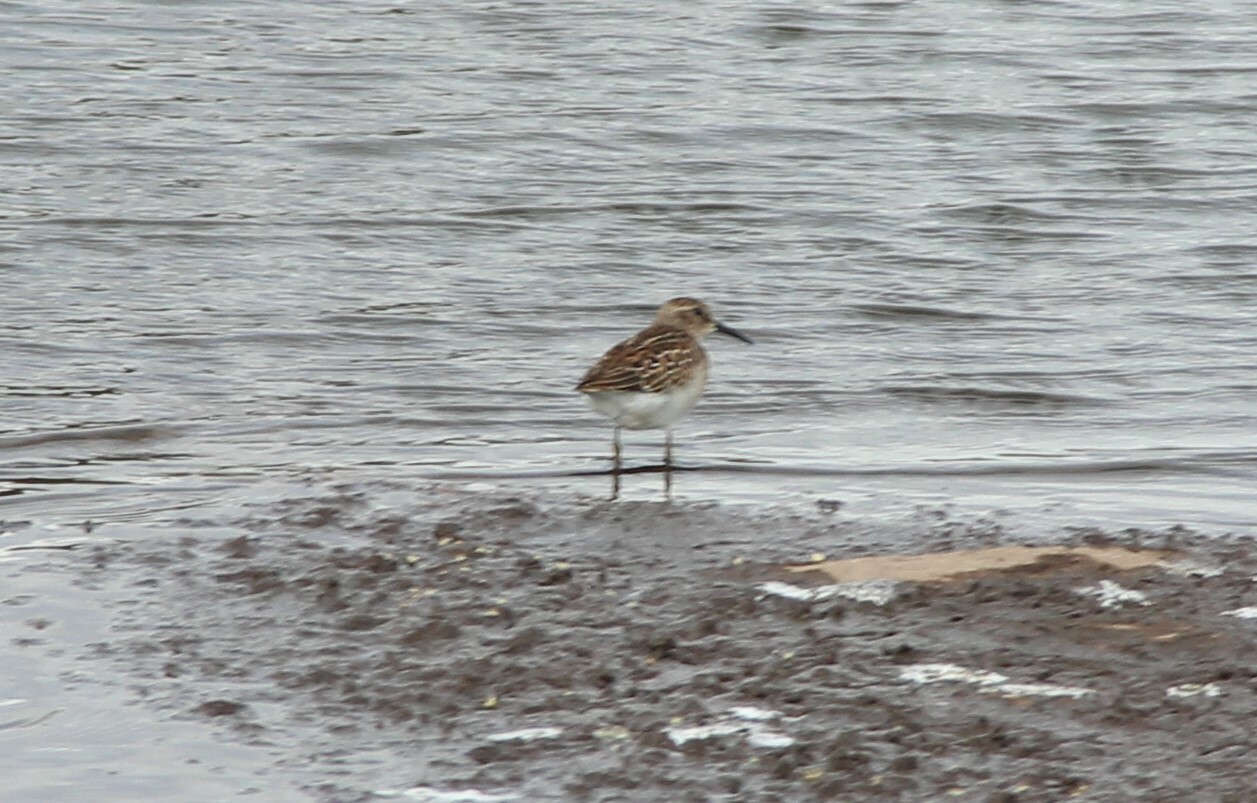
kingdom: Animalia
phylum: Chordata
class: Aves
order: Charadriiformes
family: Scolopacidae
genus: Calidris
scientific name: Calidris minutilla
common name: Least sandpiper
